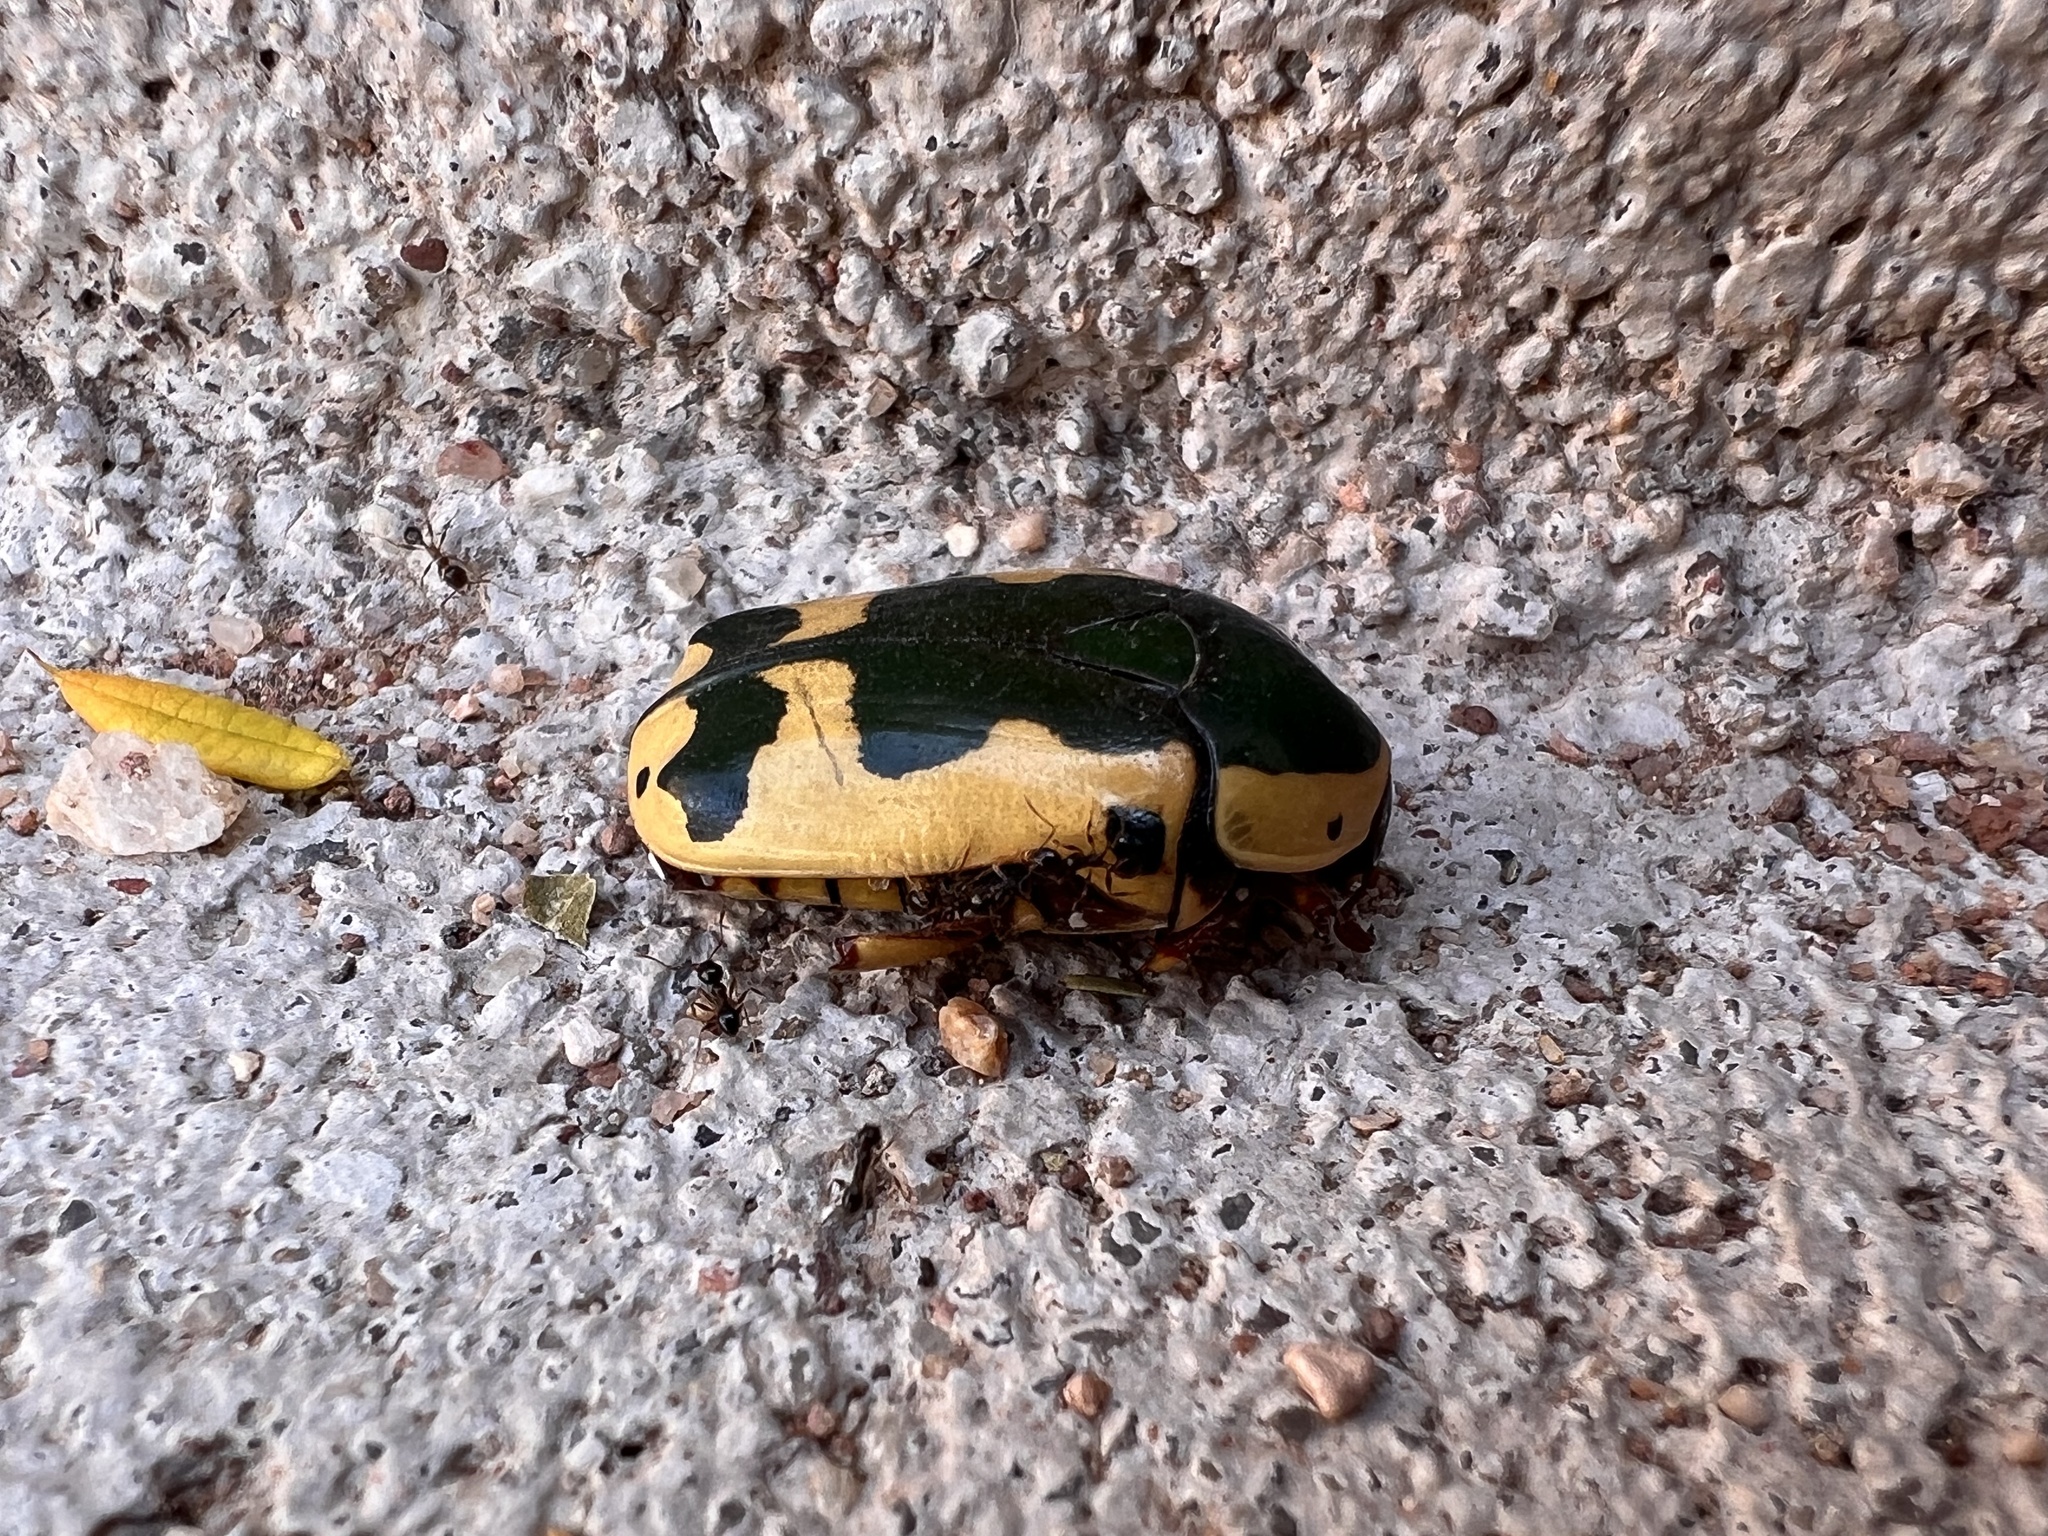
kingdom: Animalia
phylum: Arthropoda
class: Insecta
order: Coleoptera
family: Scarabaeidae
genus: Pachnoda
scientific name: Pachnoda sinuata
